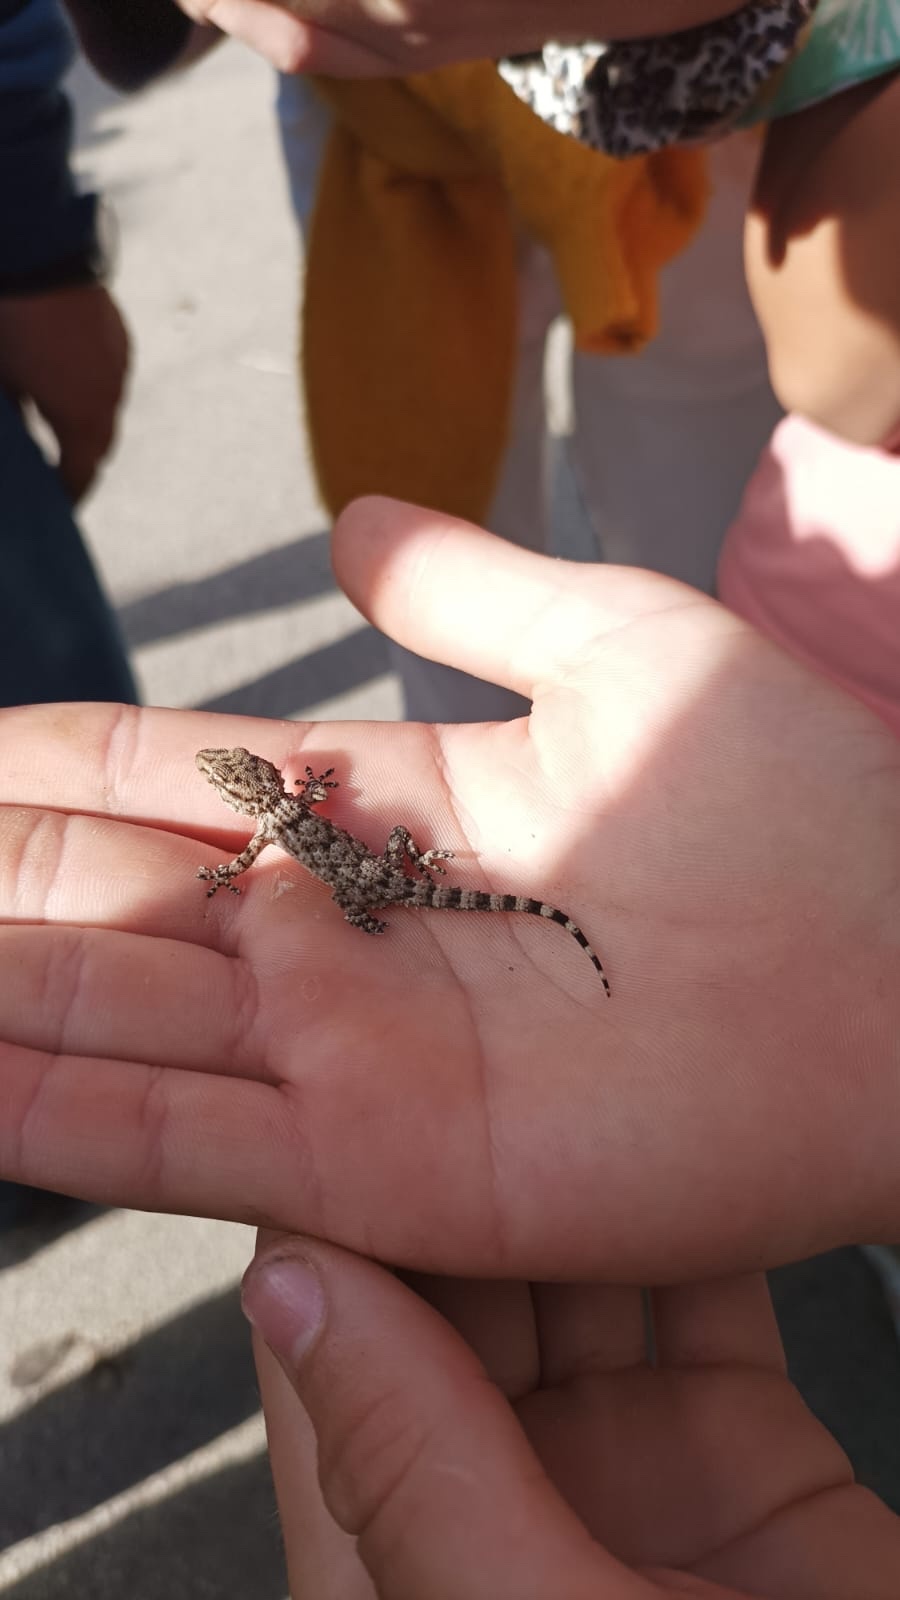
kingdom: Animalia
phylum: Chordata
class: Squamata
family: Phyllodactylidae
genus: Tarentola
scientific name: Tarentola mauritanica
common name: Moorish gecko
